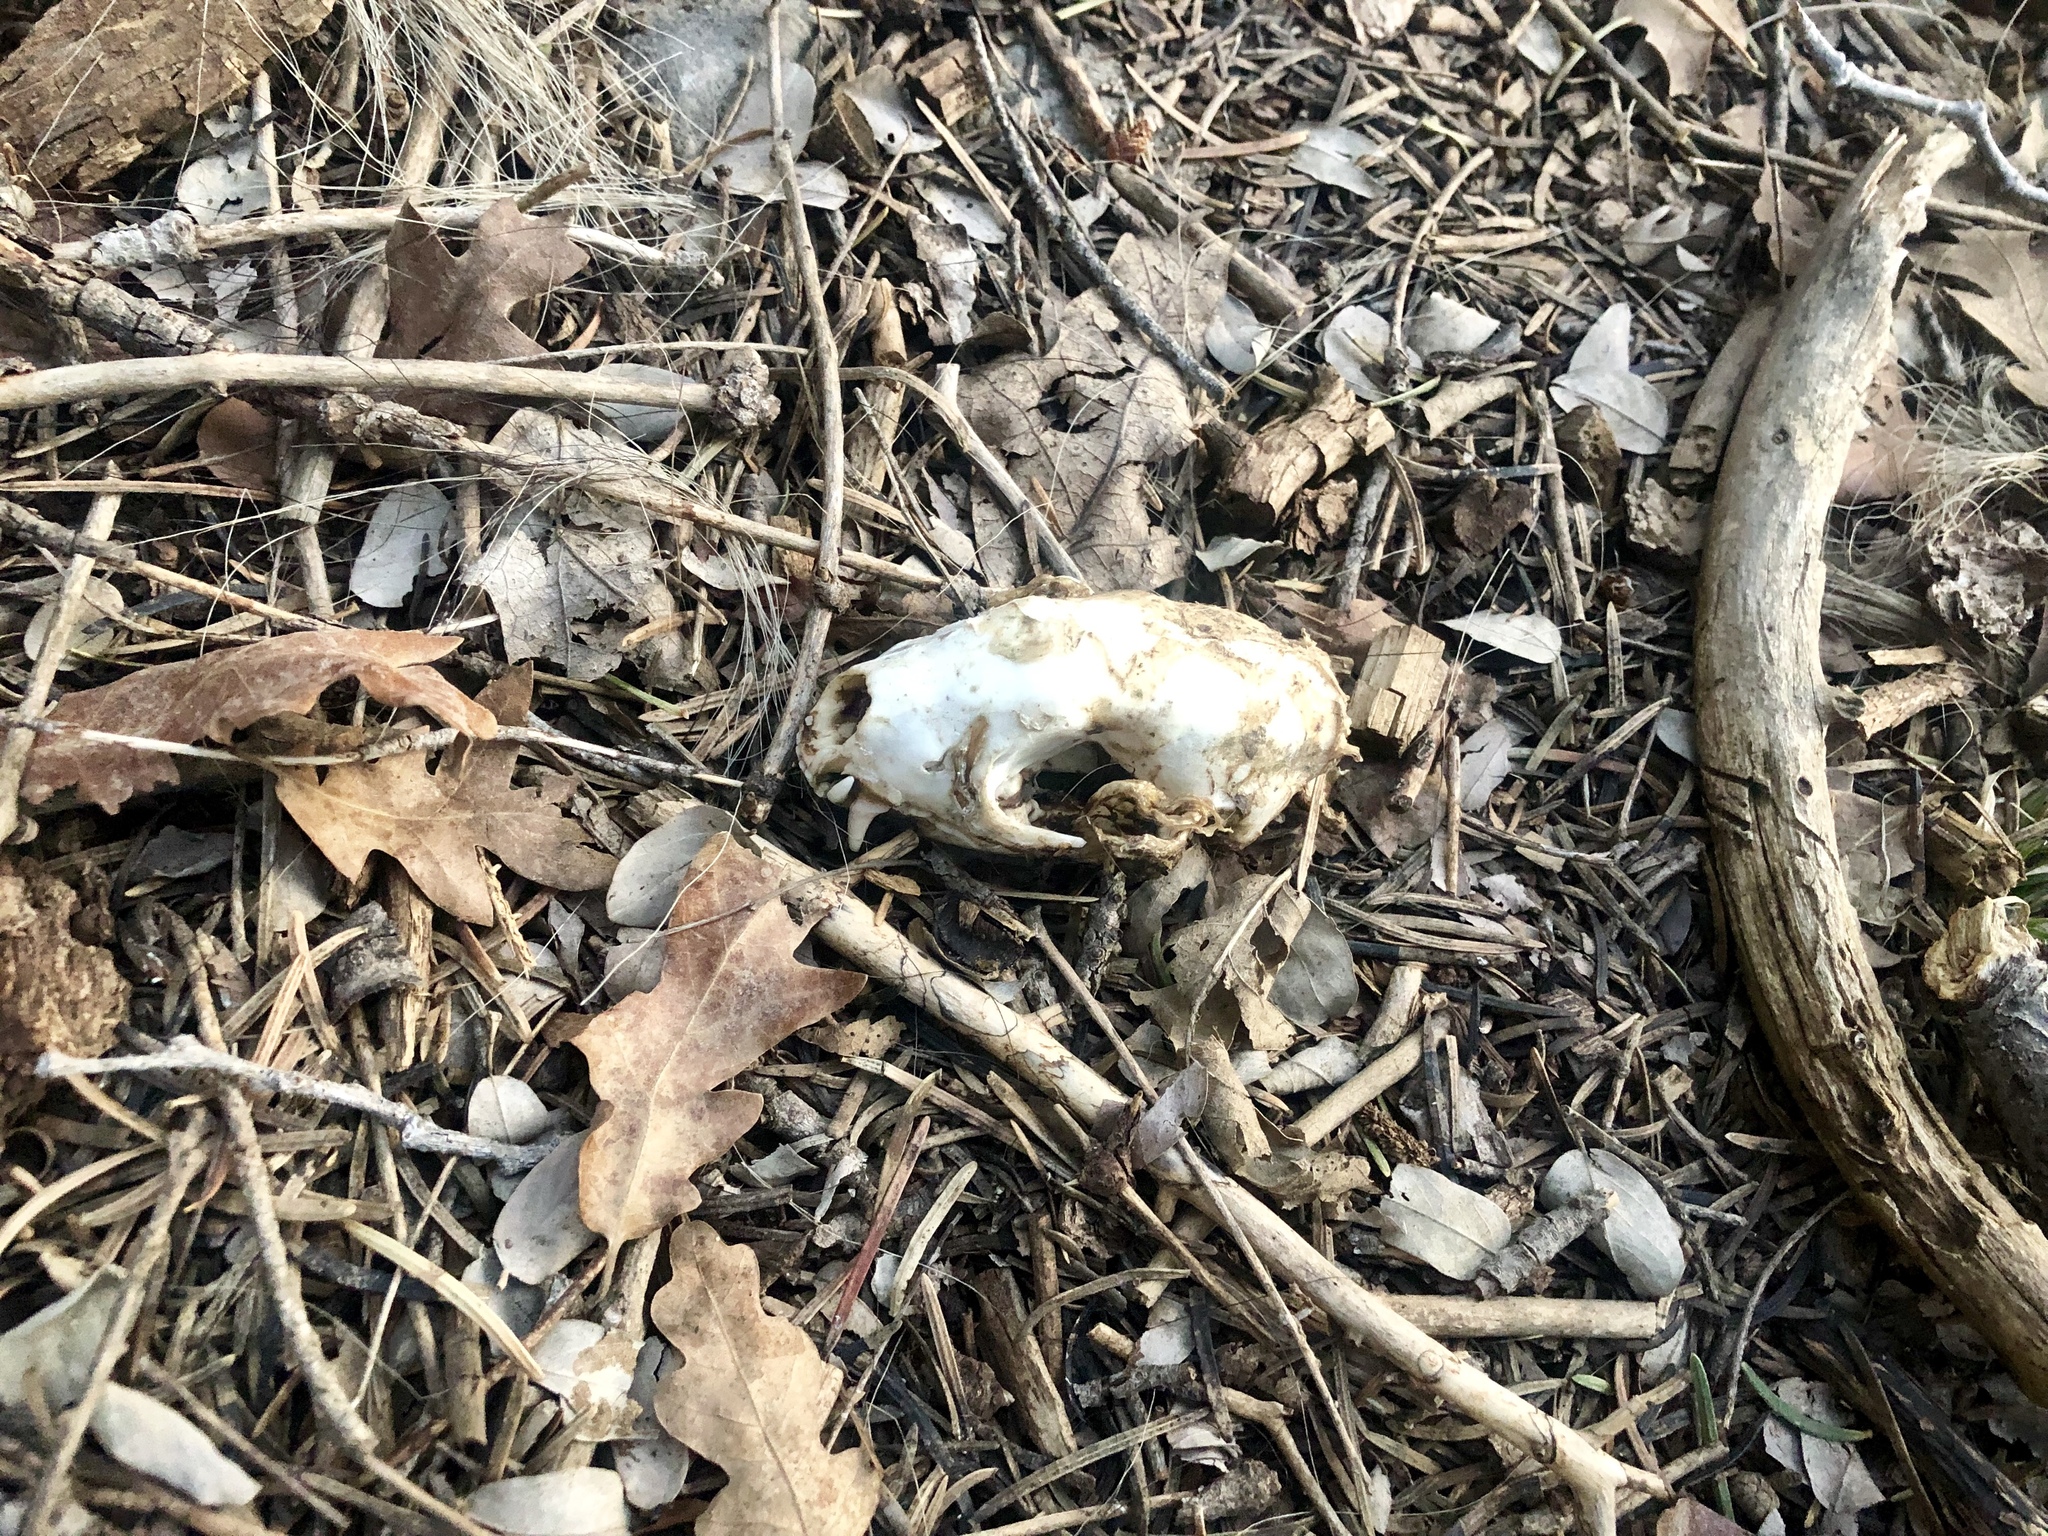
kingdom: Animalia
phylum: Chordata
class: Mammalia
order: Carnivora
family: Mephitidae
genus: Mephitis
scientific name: Mephitis mephitis
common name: Striped skunk
